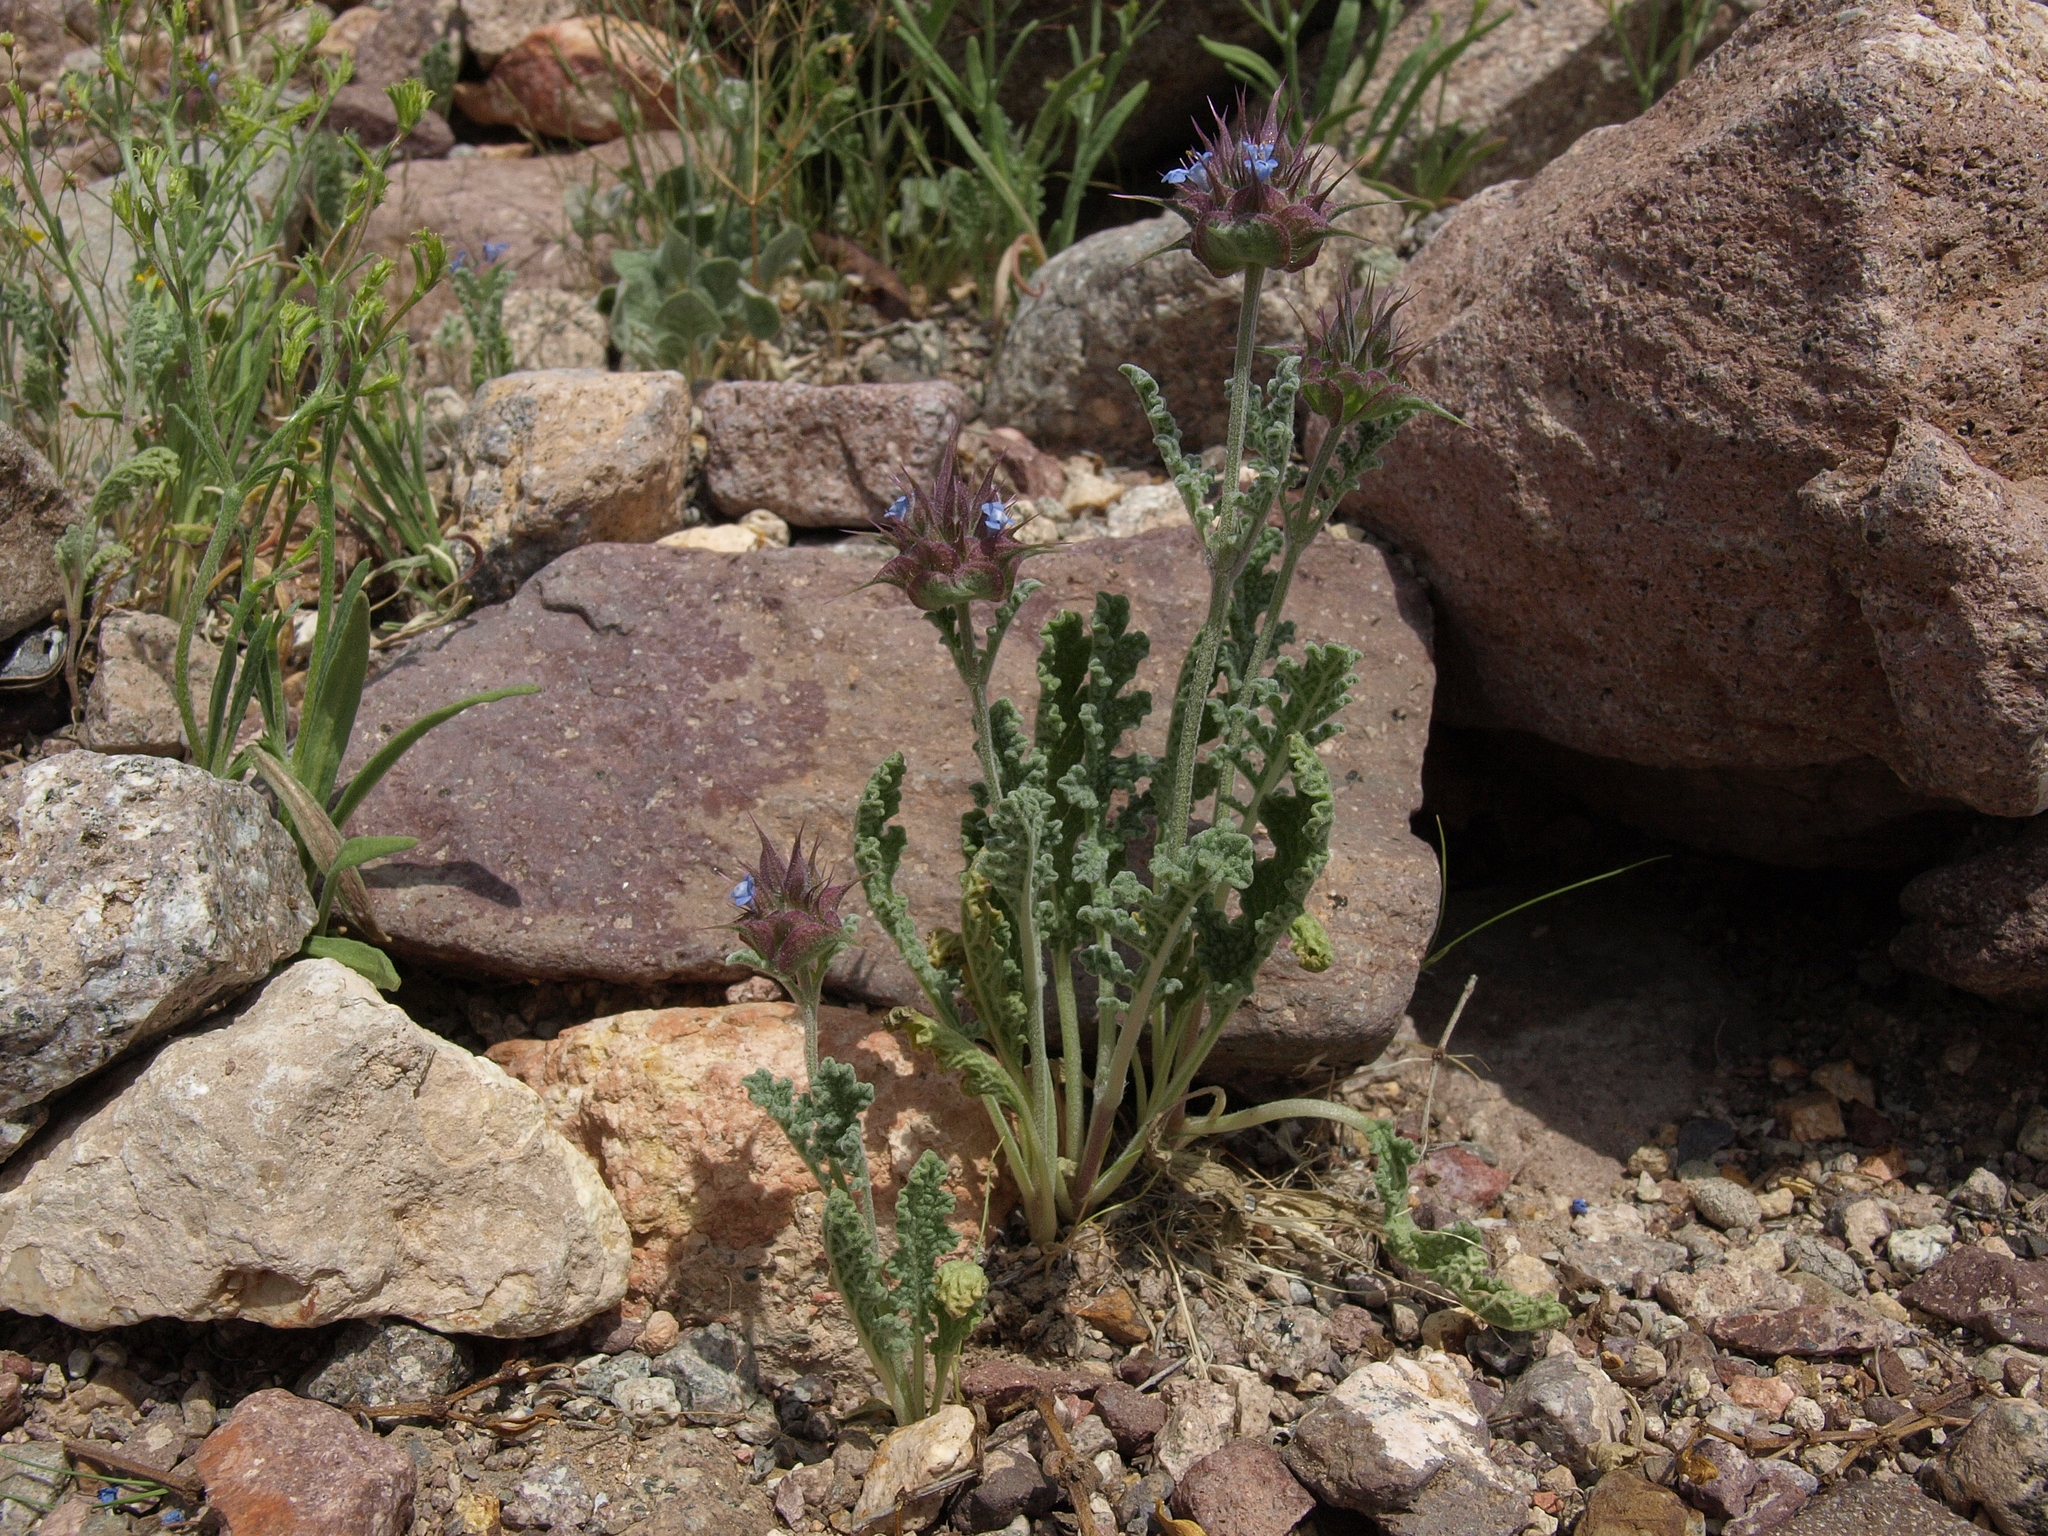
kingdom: Plantae
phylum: Tracheophyta
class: Magnoliopsida
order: Lamiales
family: Lamiaceae
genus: Salvia
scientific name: Salvia columbariae
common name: Chia
